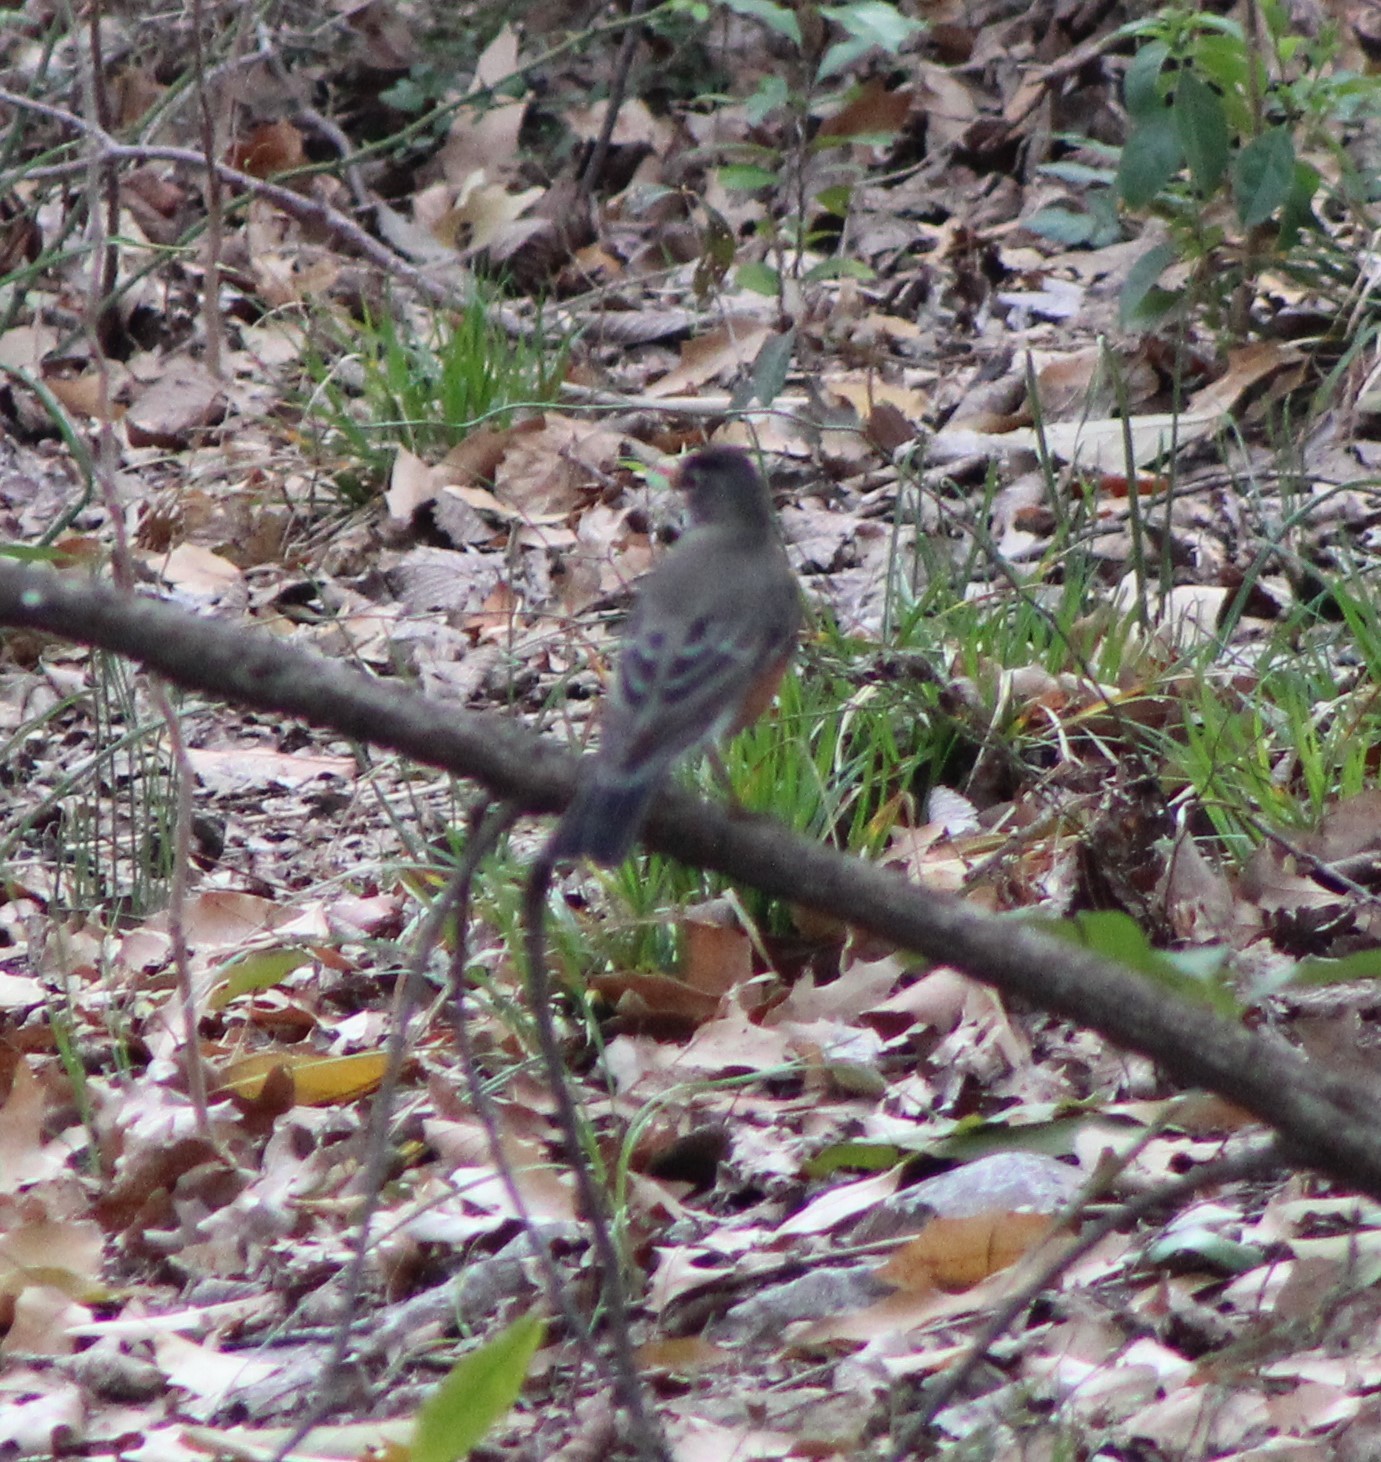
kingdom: Animalia
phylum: Chordata
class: Aves
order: Passeriformes
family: Turdidae
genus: Turdus
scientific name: Turdus migratorius
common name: American robin
